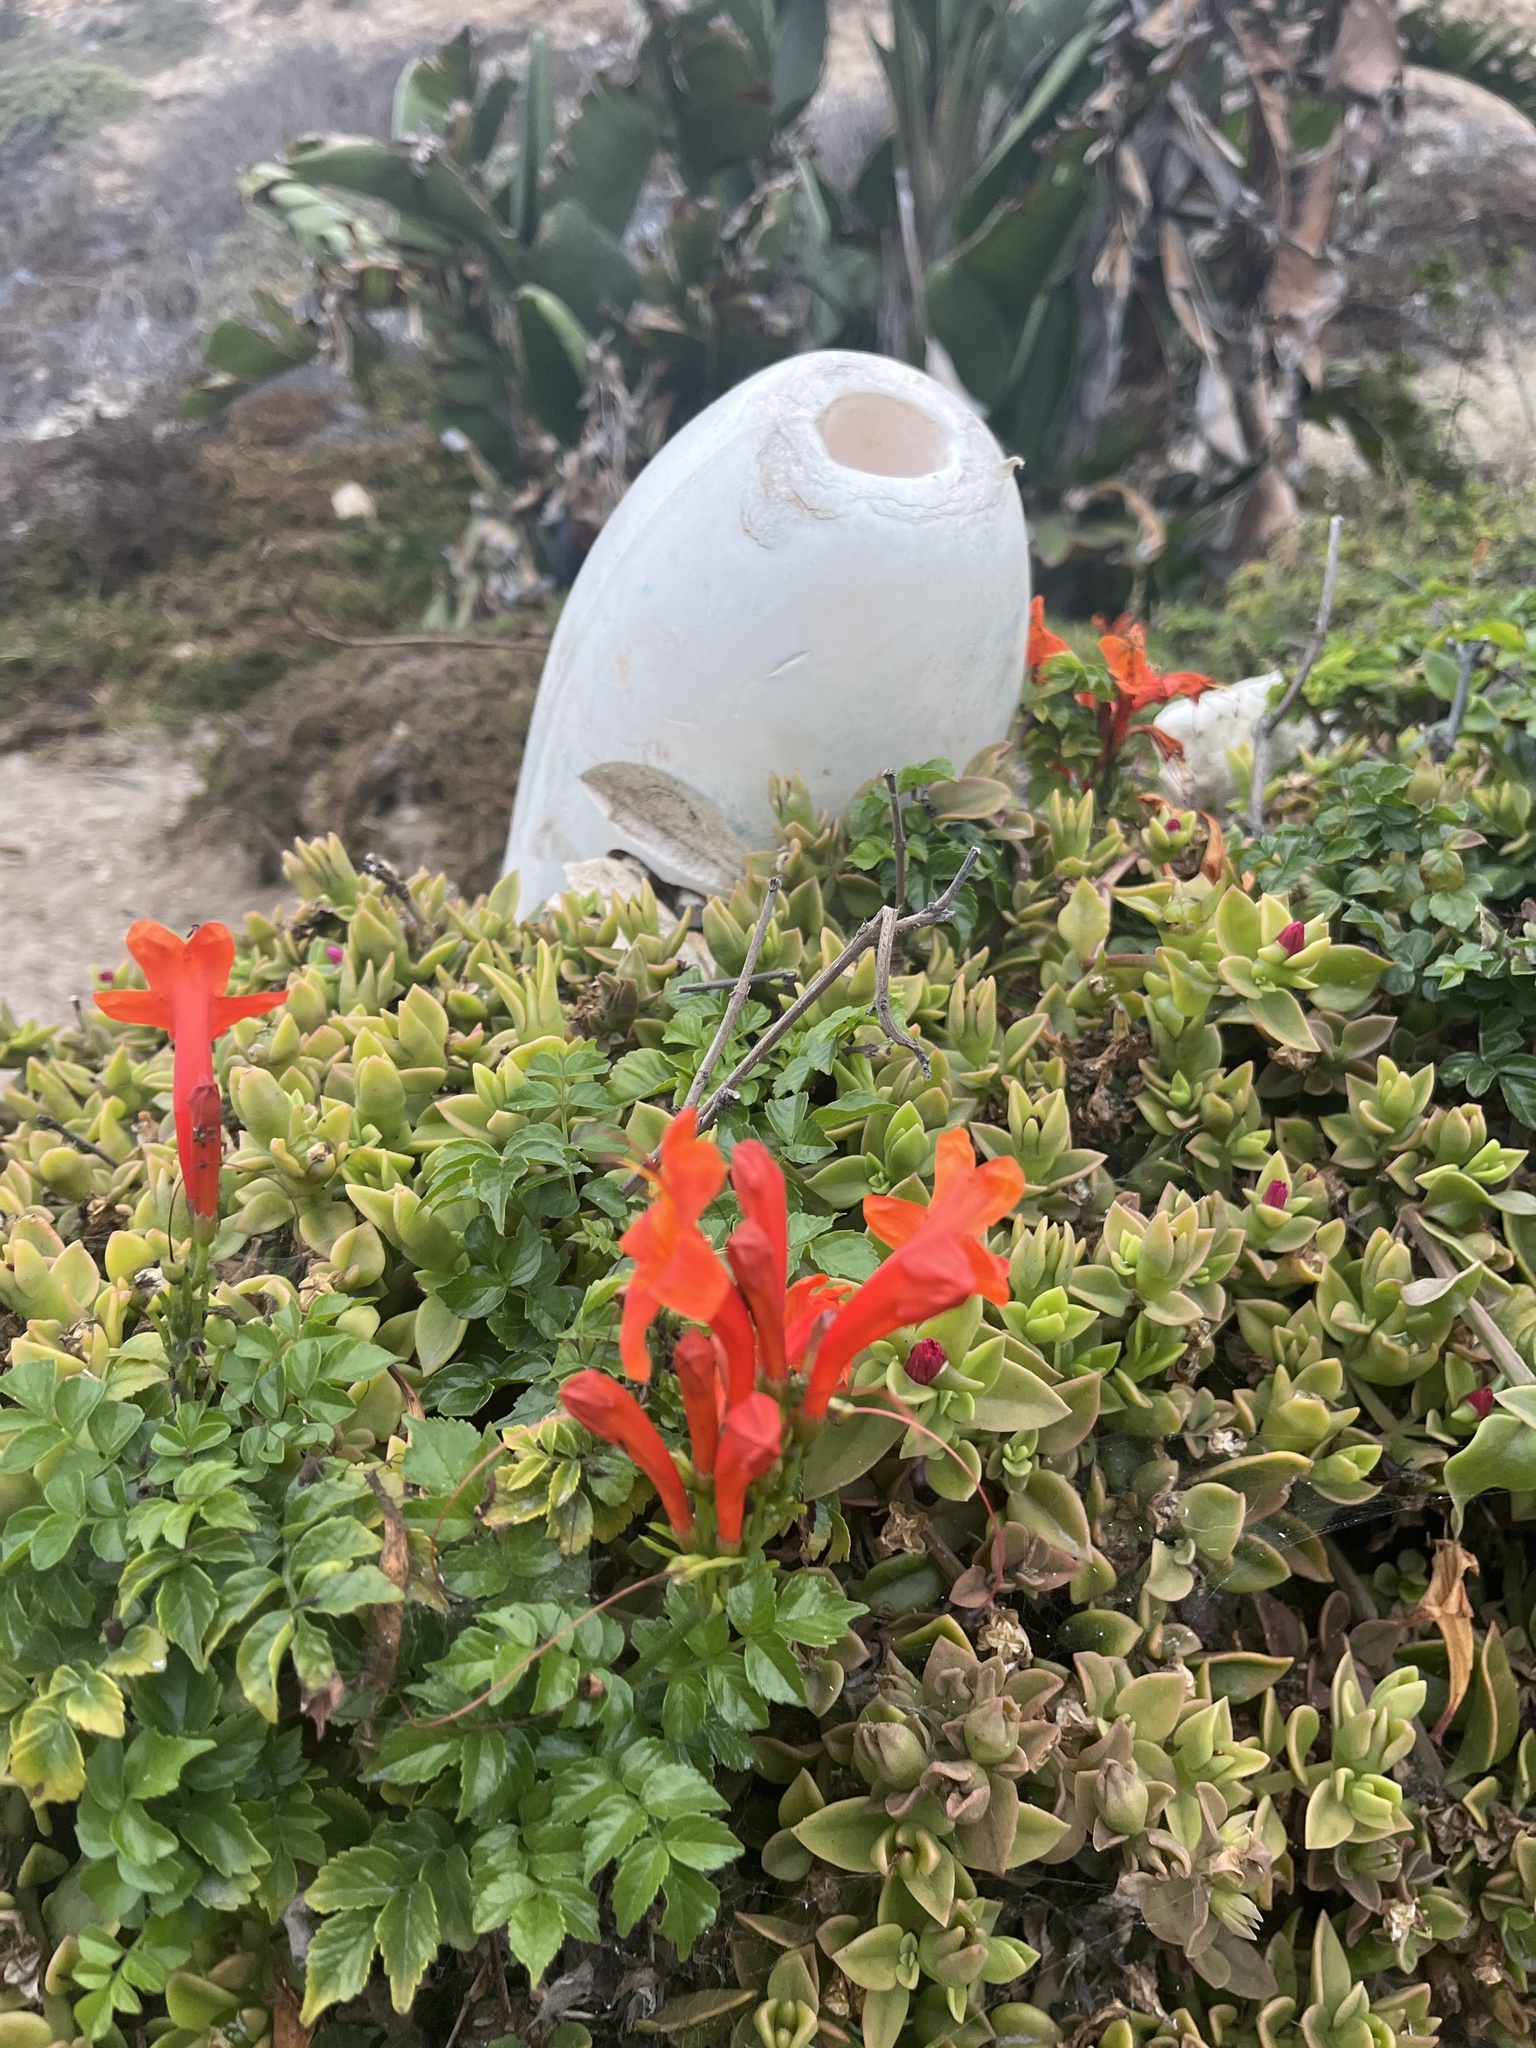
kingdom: Plantae
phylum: Tracheophyta
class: Magnoliopsida
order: Lamiales
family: Bignoniaceae
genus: Tecomaria
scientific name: Tecomaria capensis
